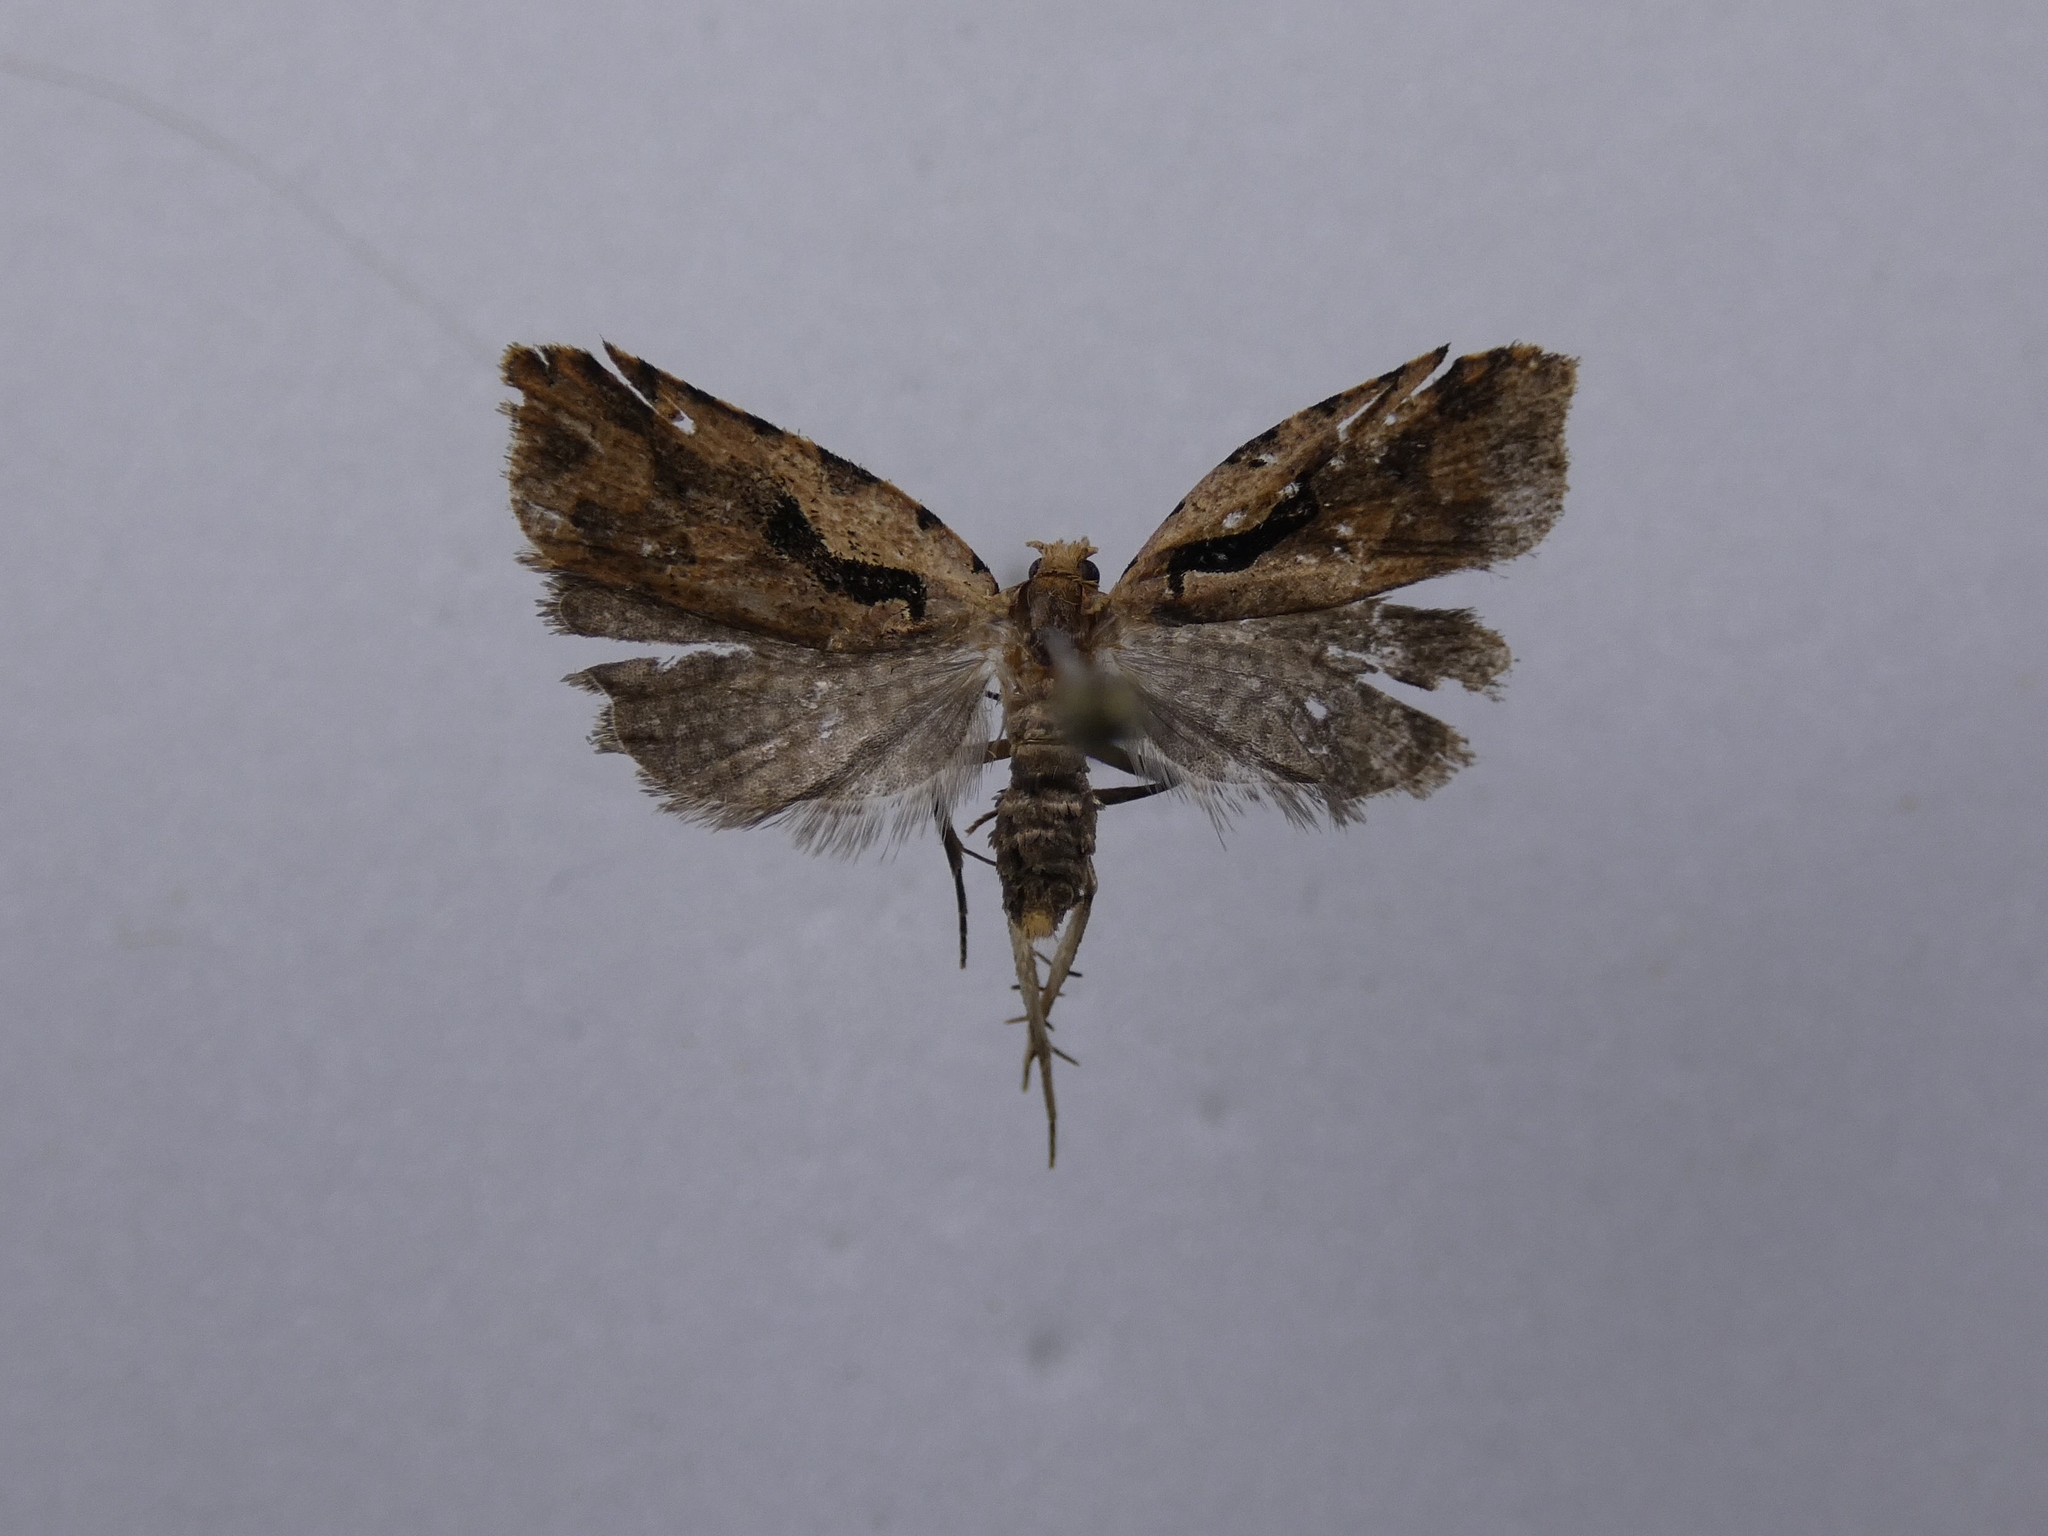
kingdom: Animalia
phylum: Arthropoda
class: Insecta
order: Lepidoptera
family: Tortricidae
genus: Cnephasia
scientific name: Cnephasia jactatana
